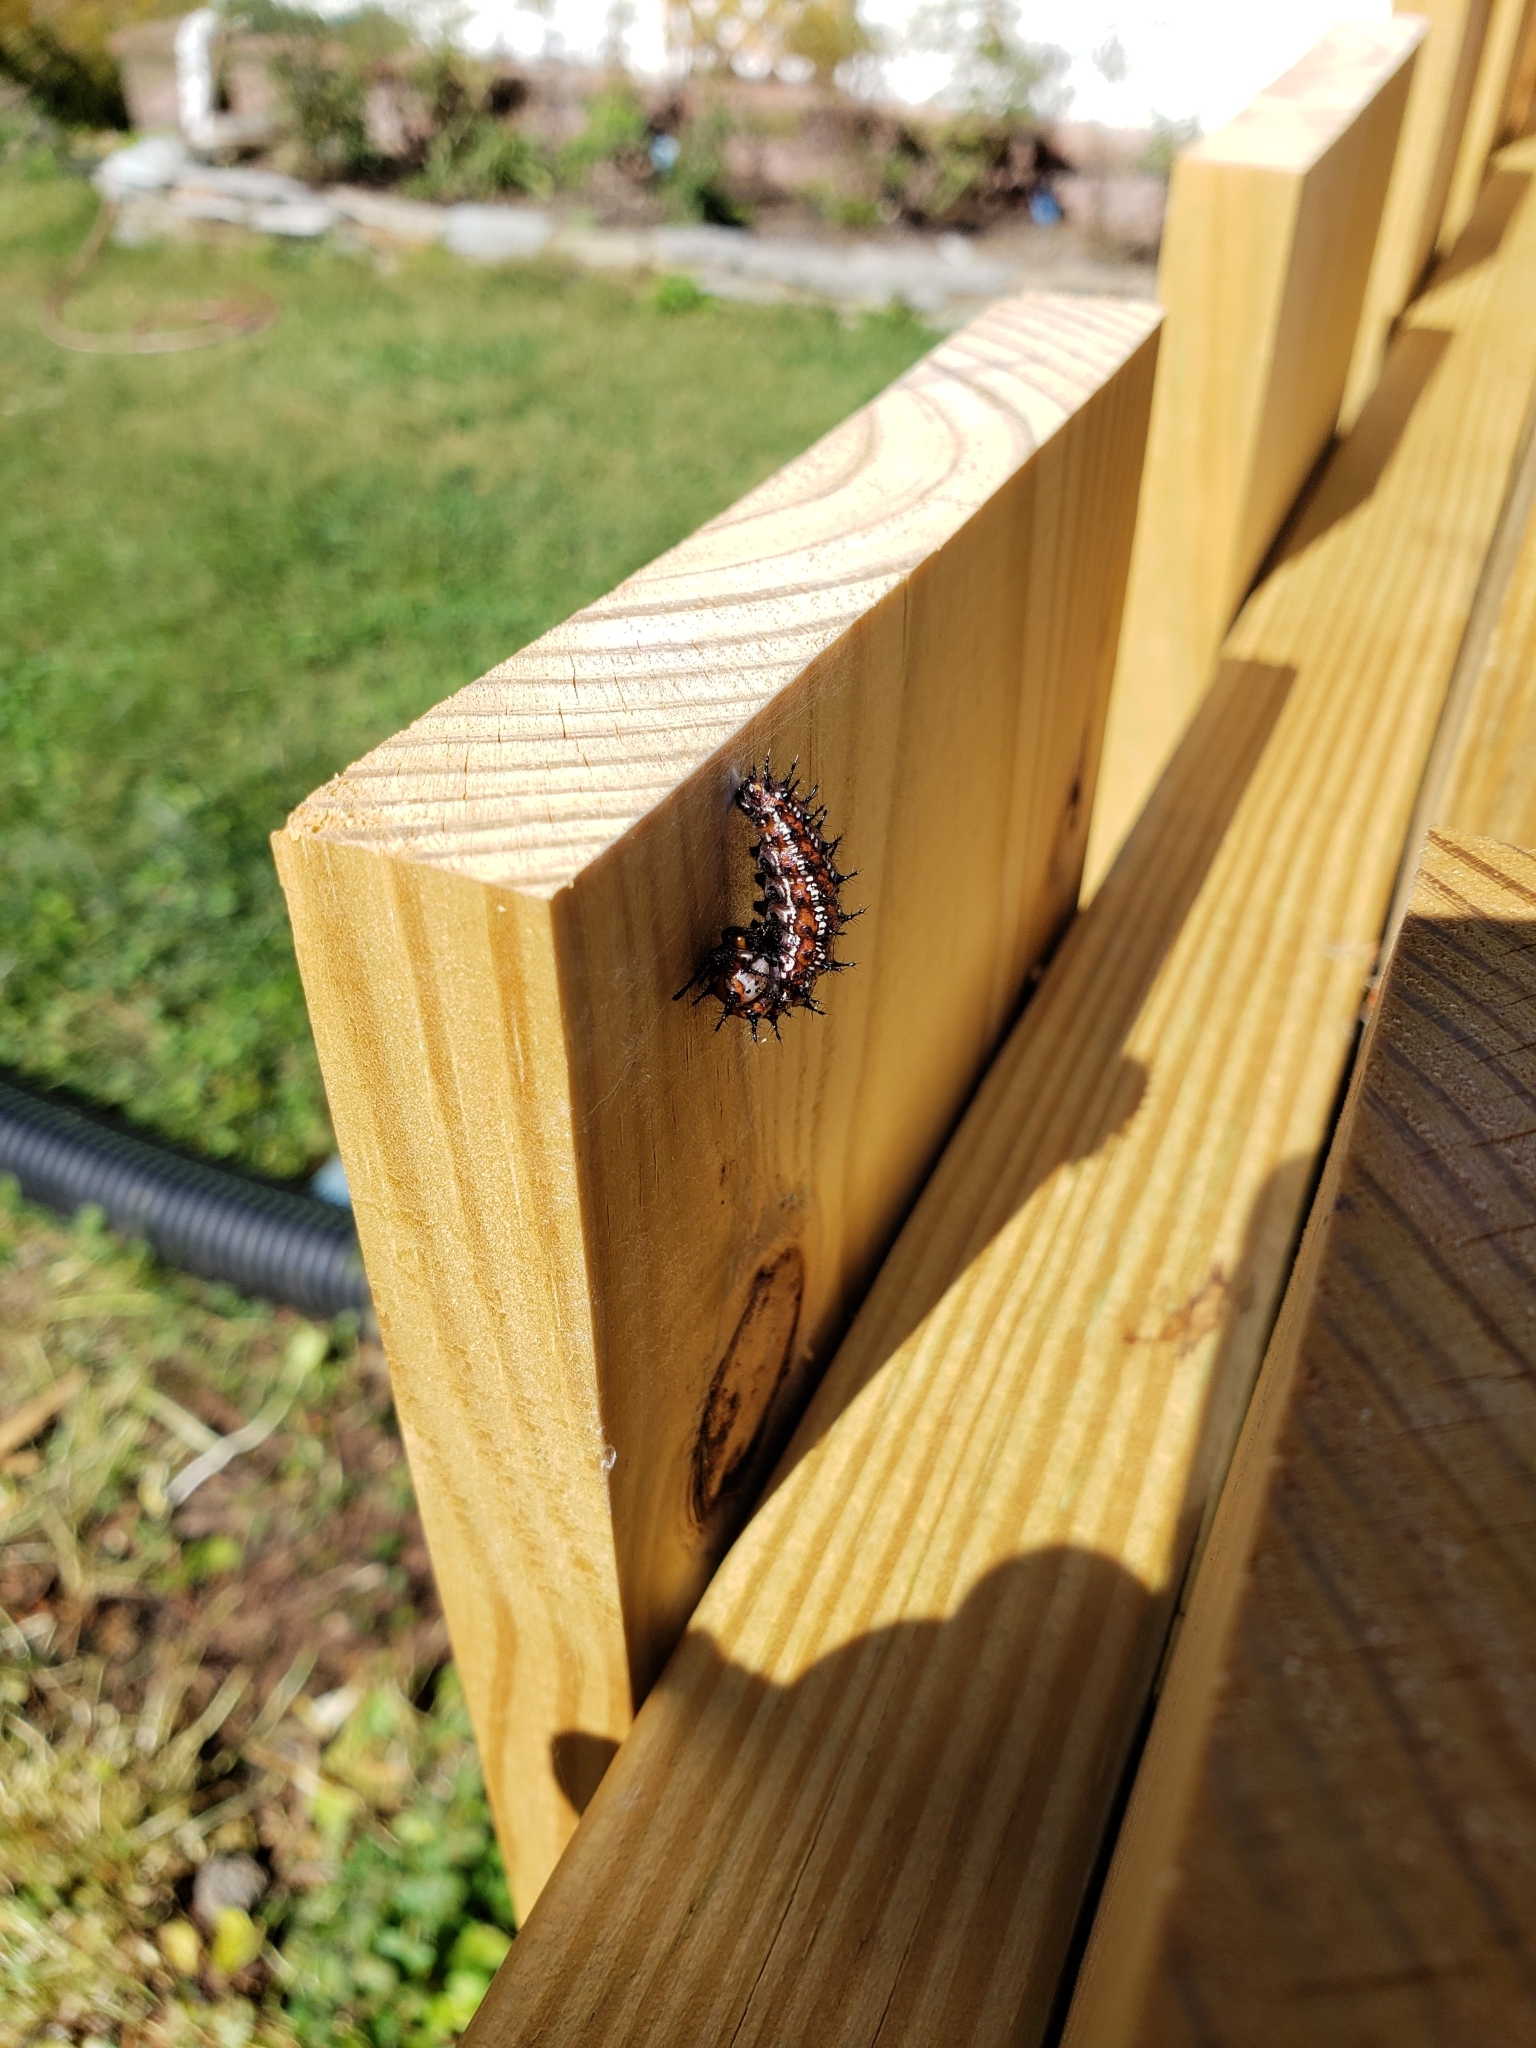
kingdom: Animalia
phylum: Arthropoda
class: Insecta
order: Lepidoptera
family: Nymphalidae
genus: Euptoieta
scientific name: Euptoieta claudia
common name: Variegated fritillary
